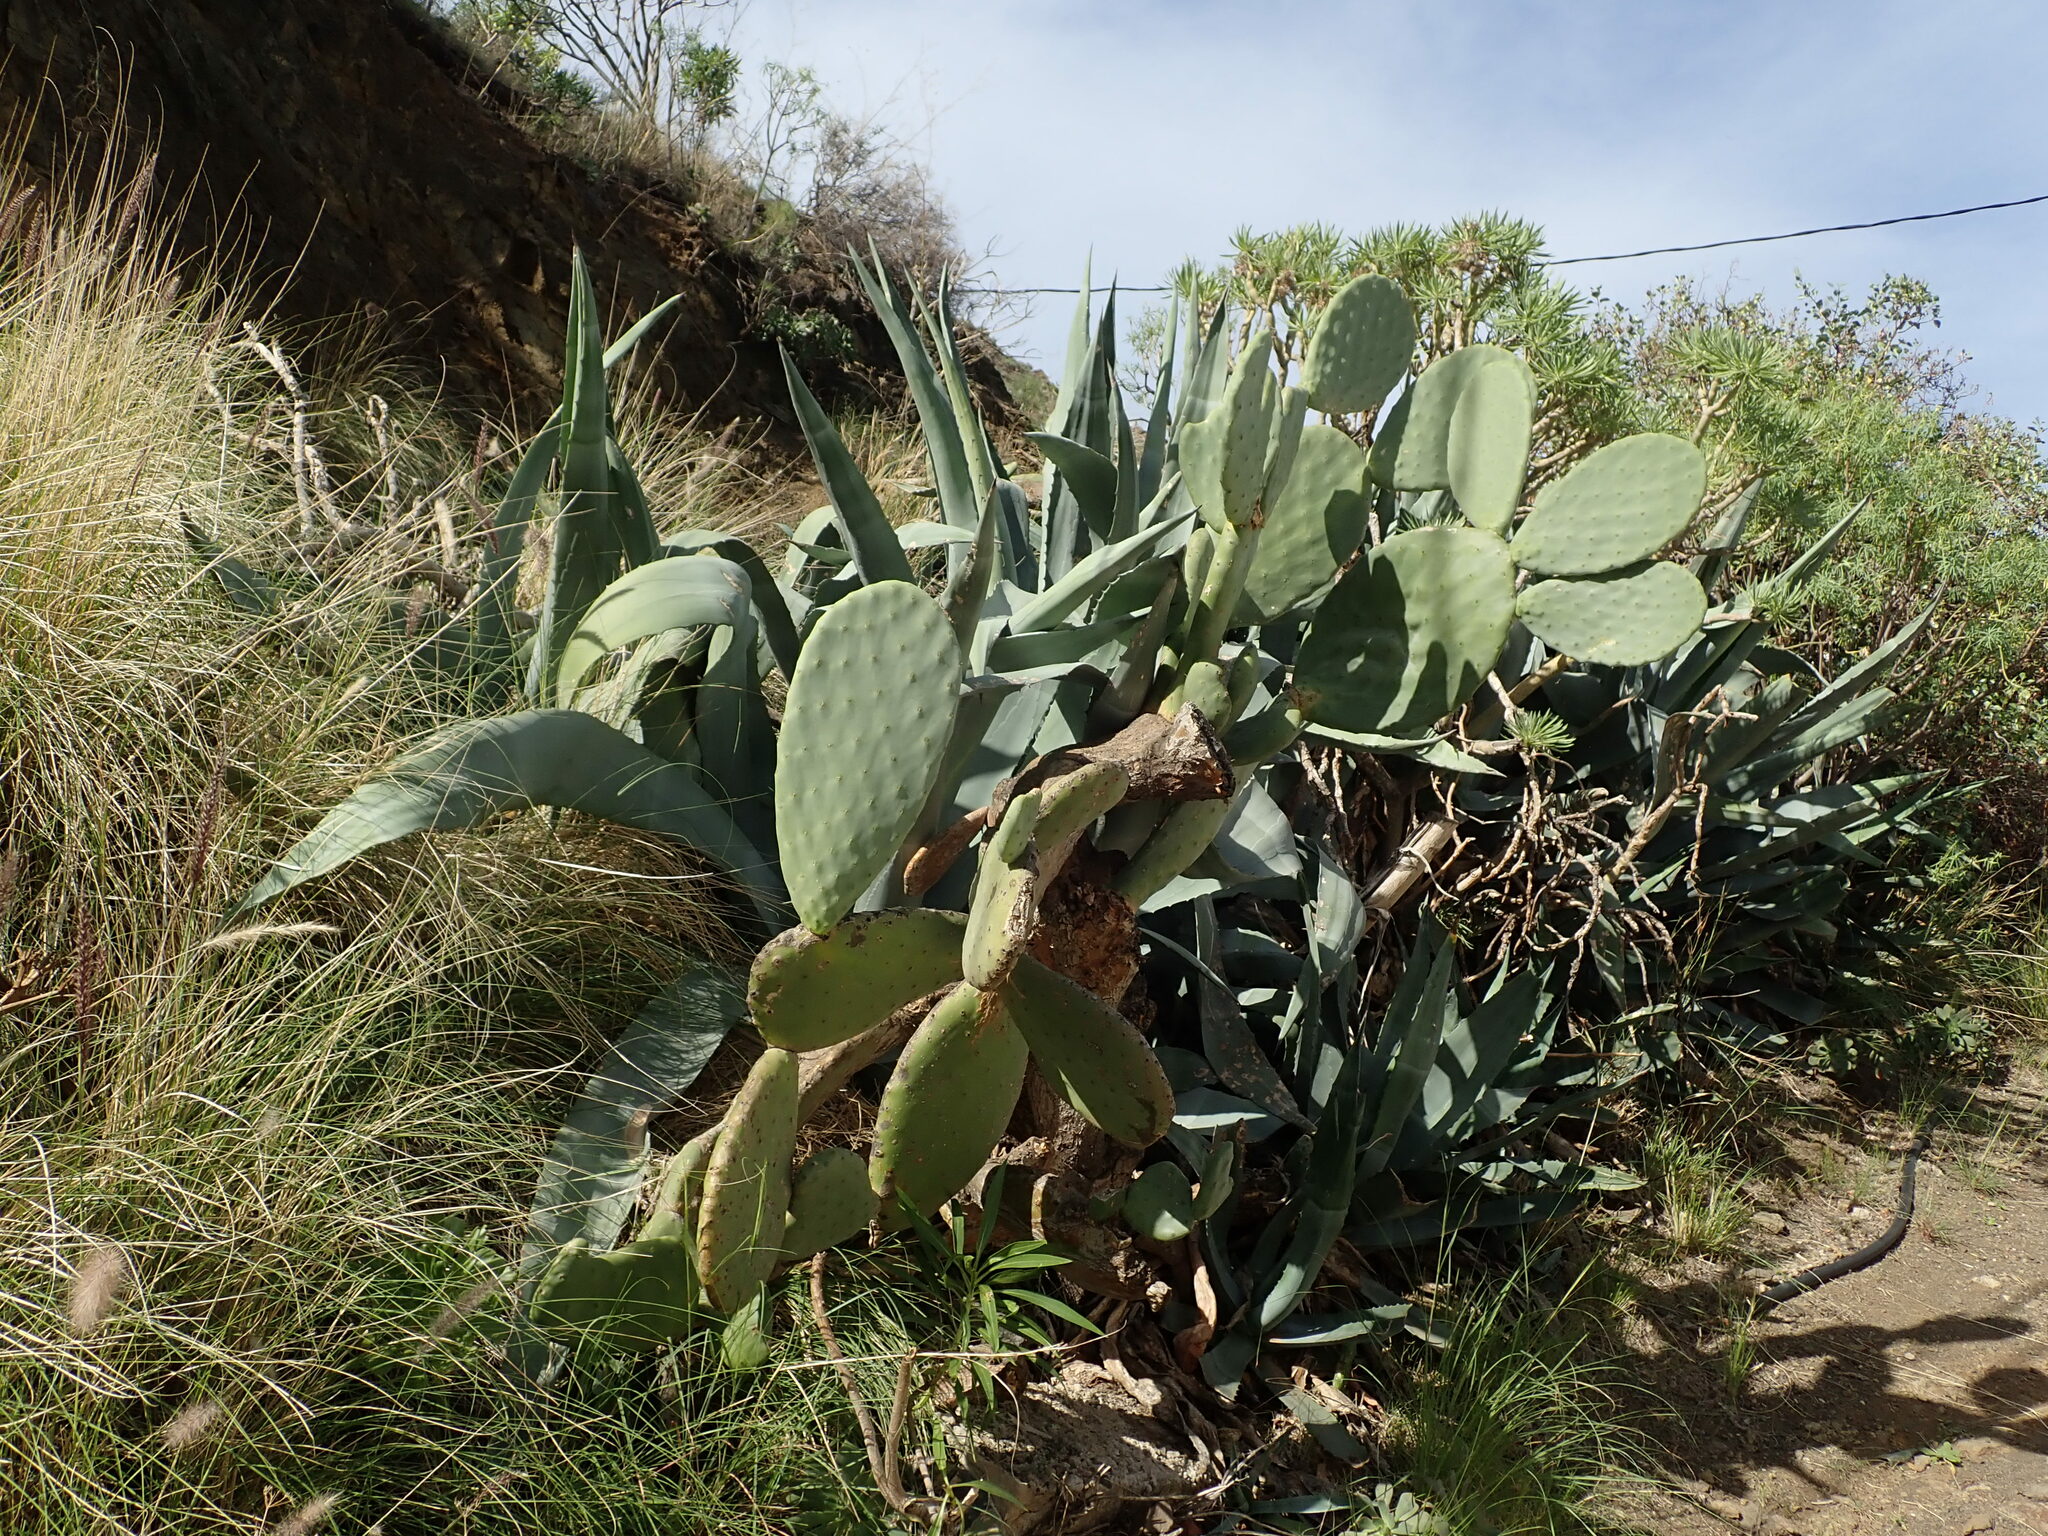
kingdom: Plantae
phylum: Tracheophyta
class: Magnoliopsida
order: Caryophyllales
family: Cactaceae
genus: Opuntia
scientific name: Opuntia ficus-indica
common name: Barbary fig
